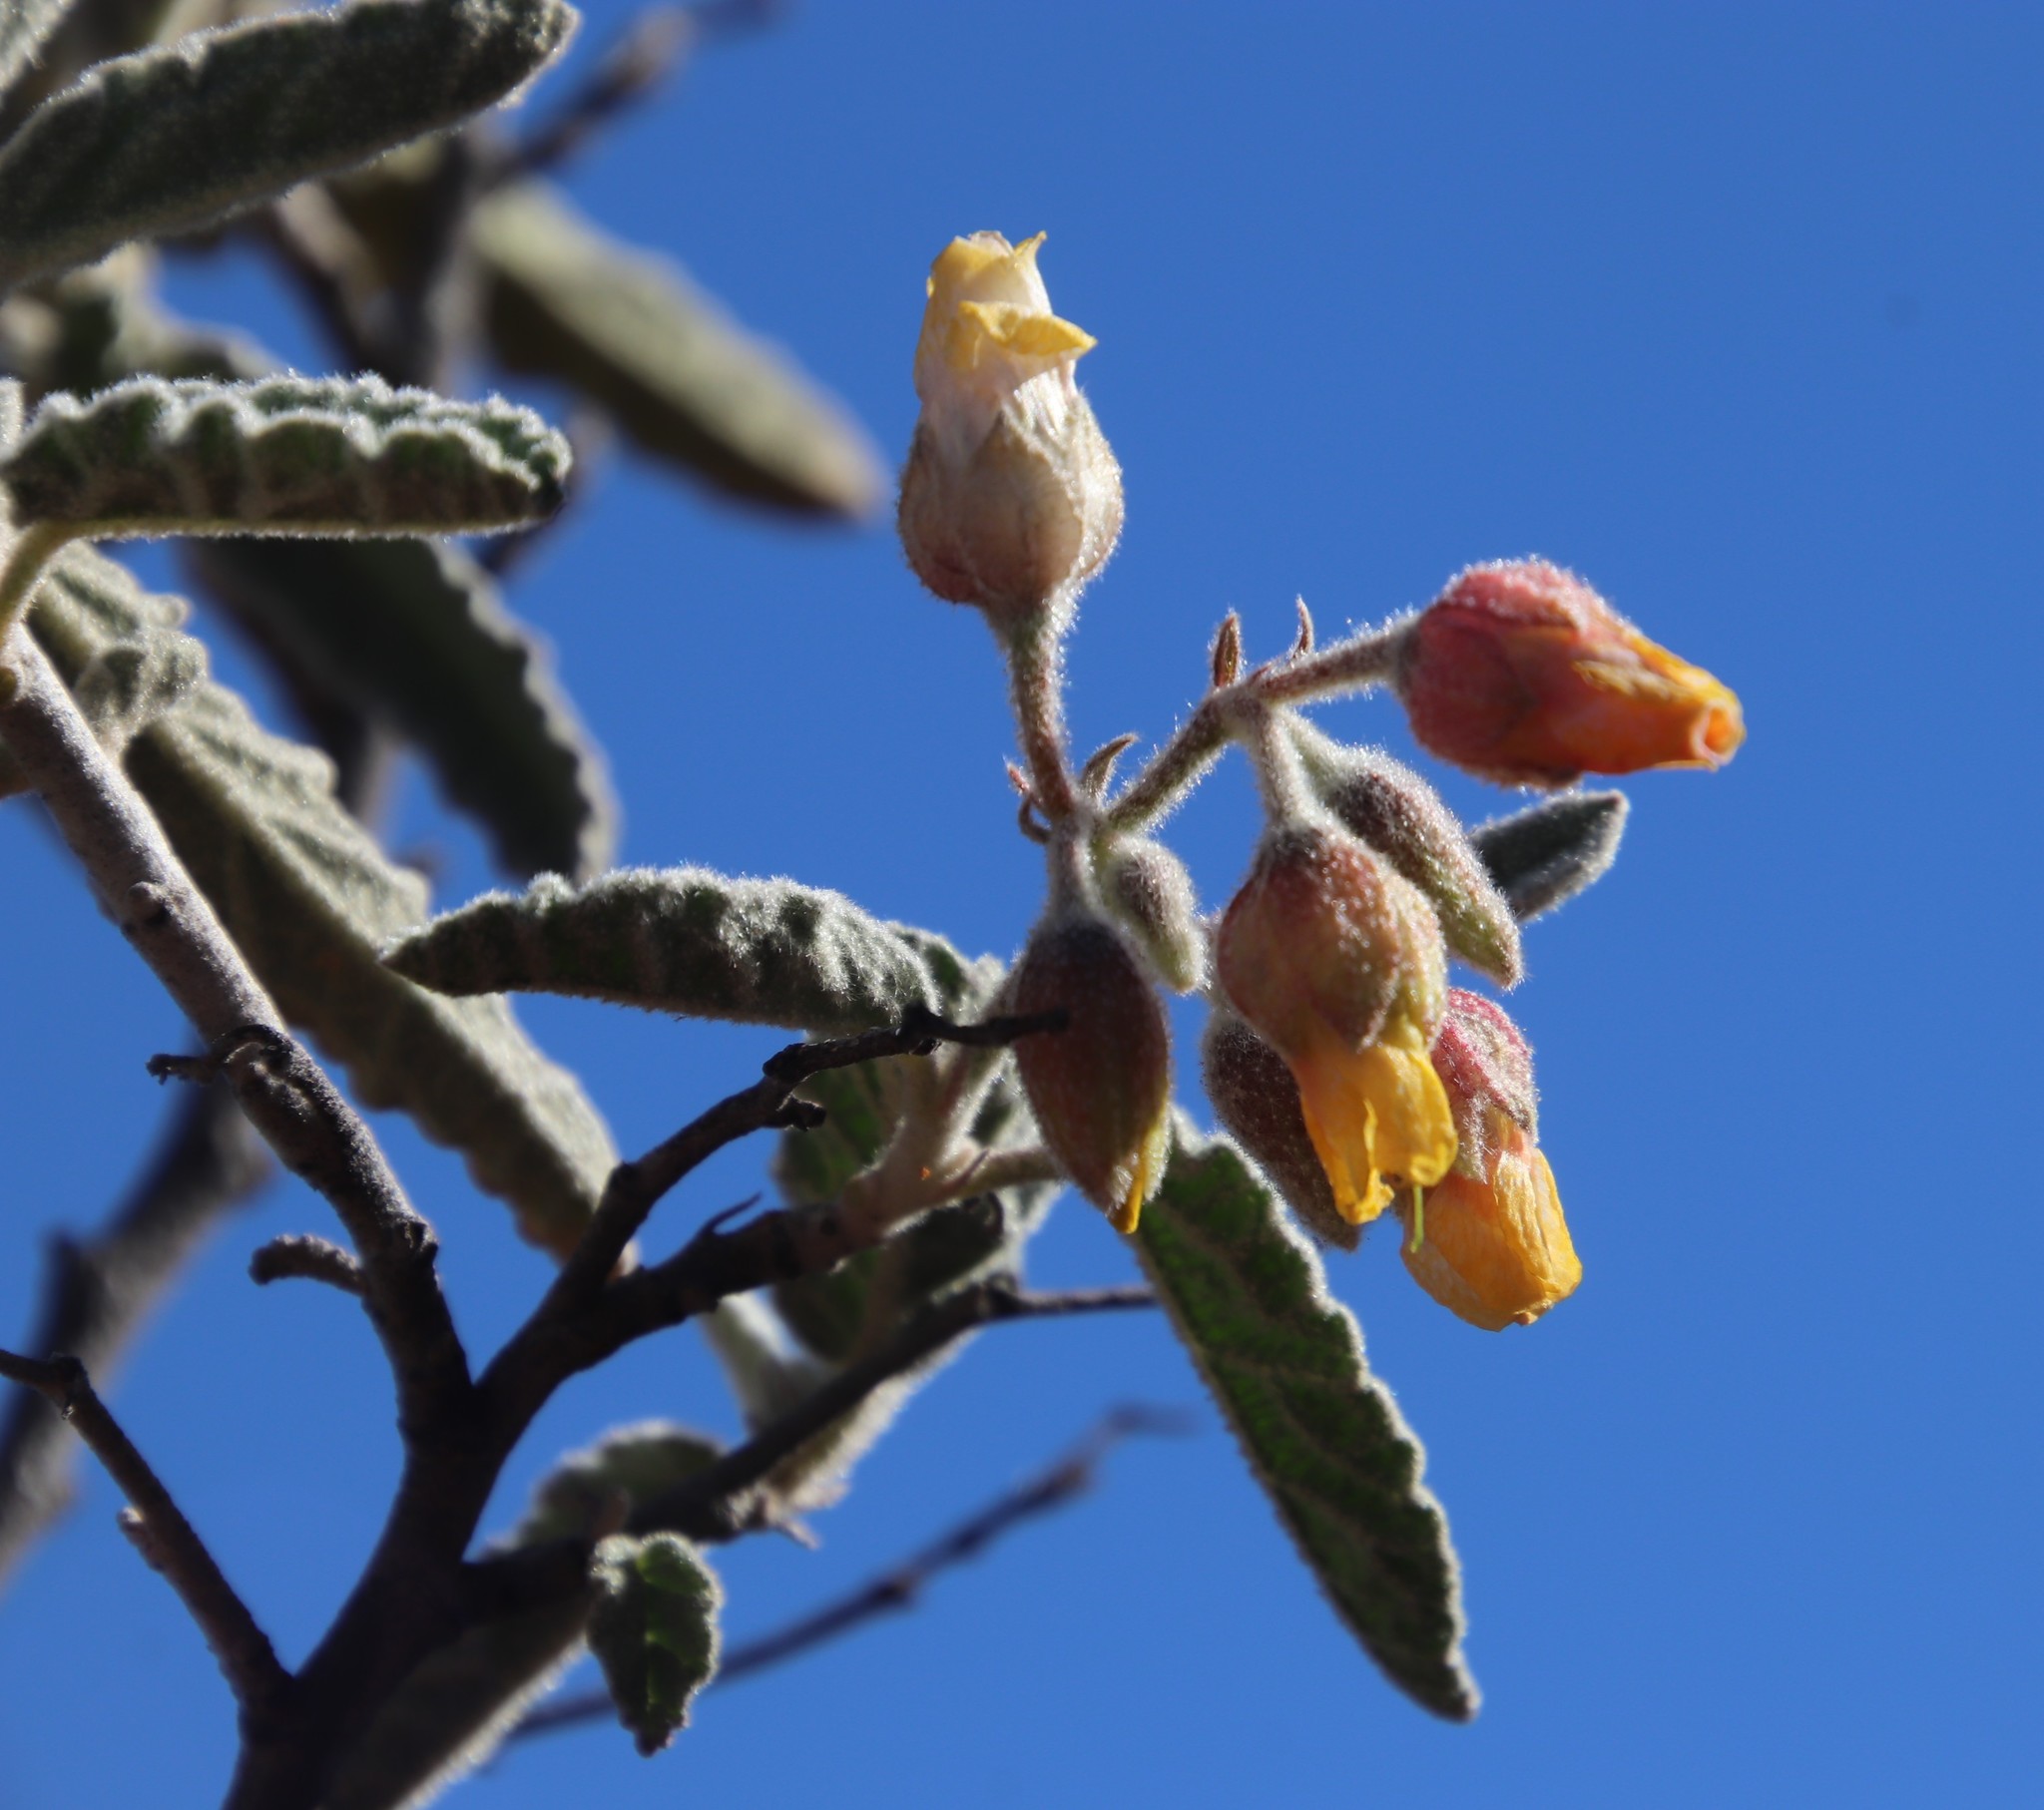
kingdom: Plantae
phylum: Tracheophyta
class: Magnoliopsida
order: Malvales
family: Malvaceae
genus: Hermannia
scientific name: Hermannia disermifolia
